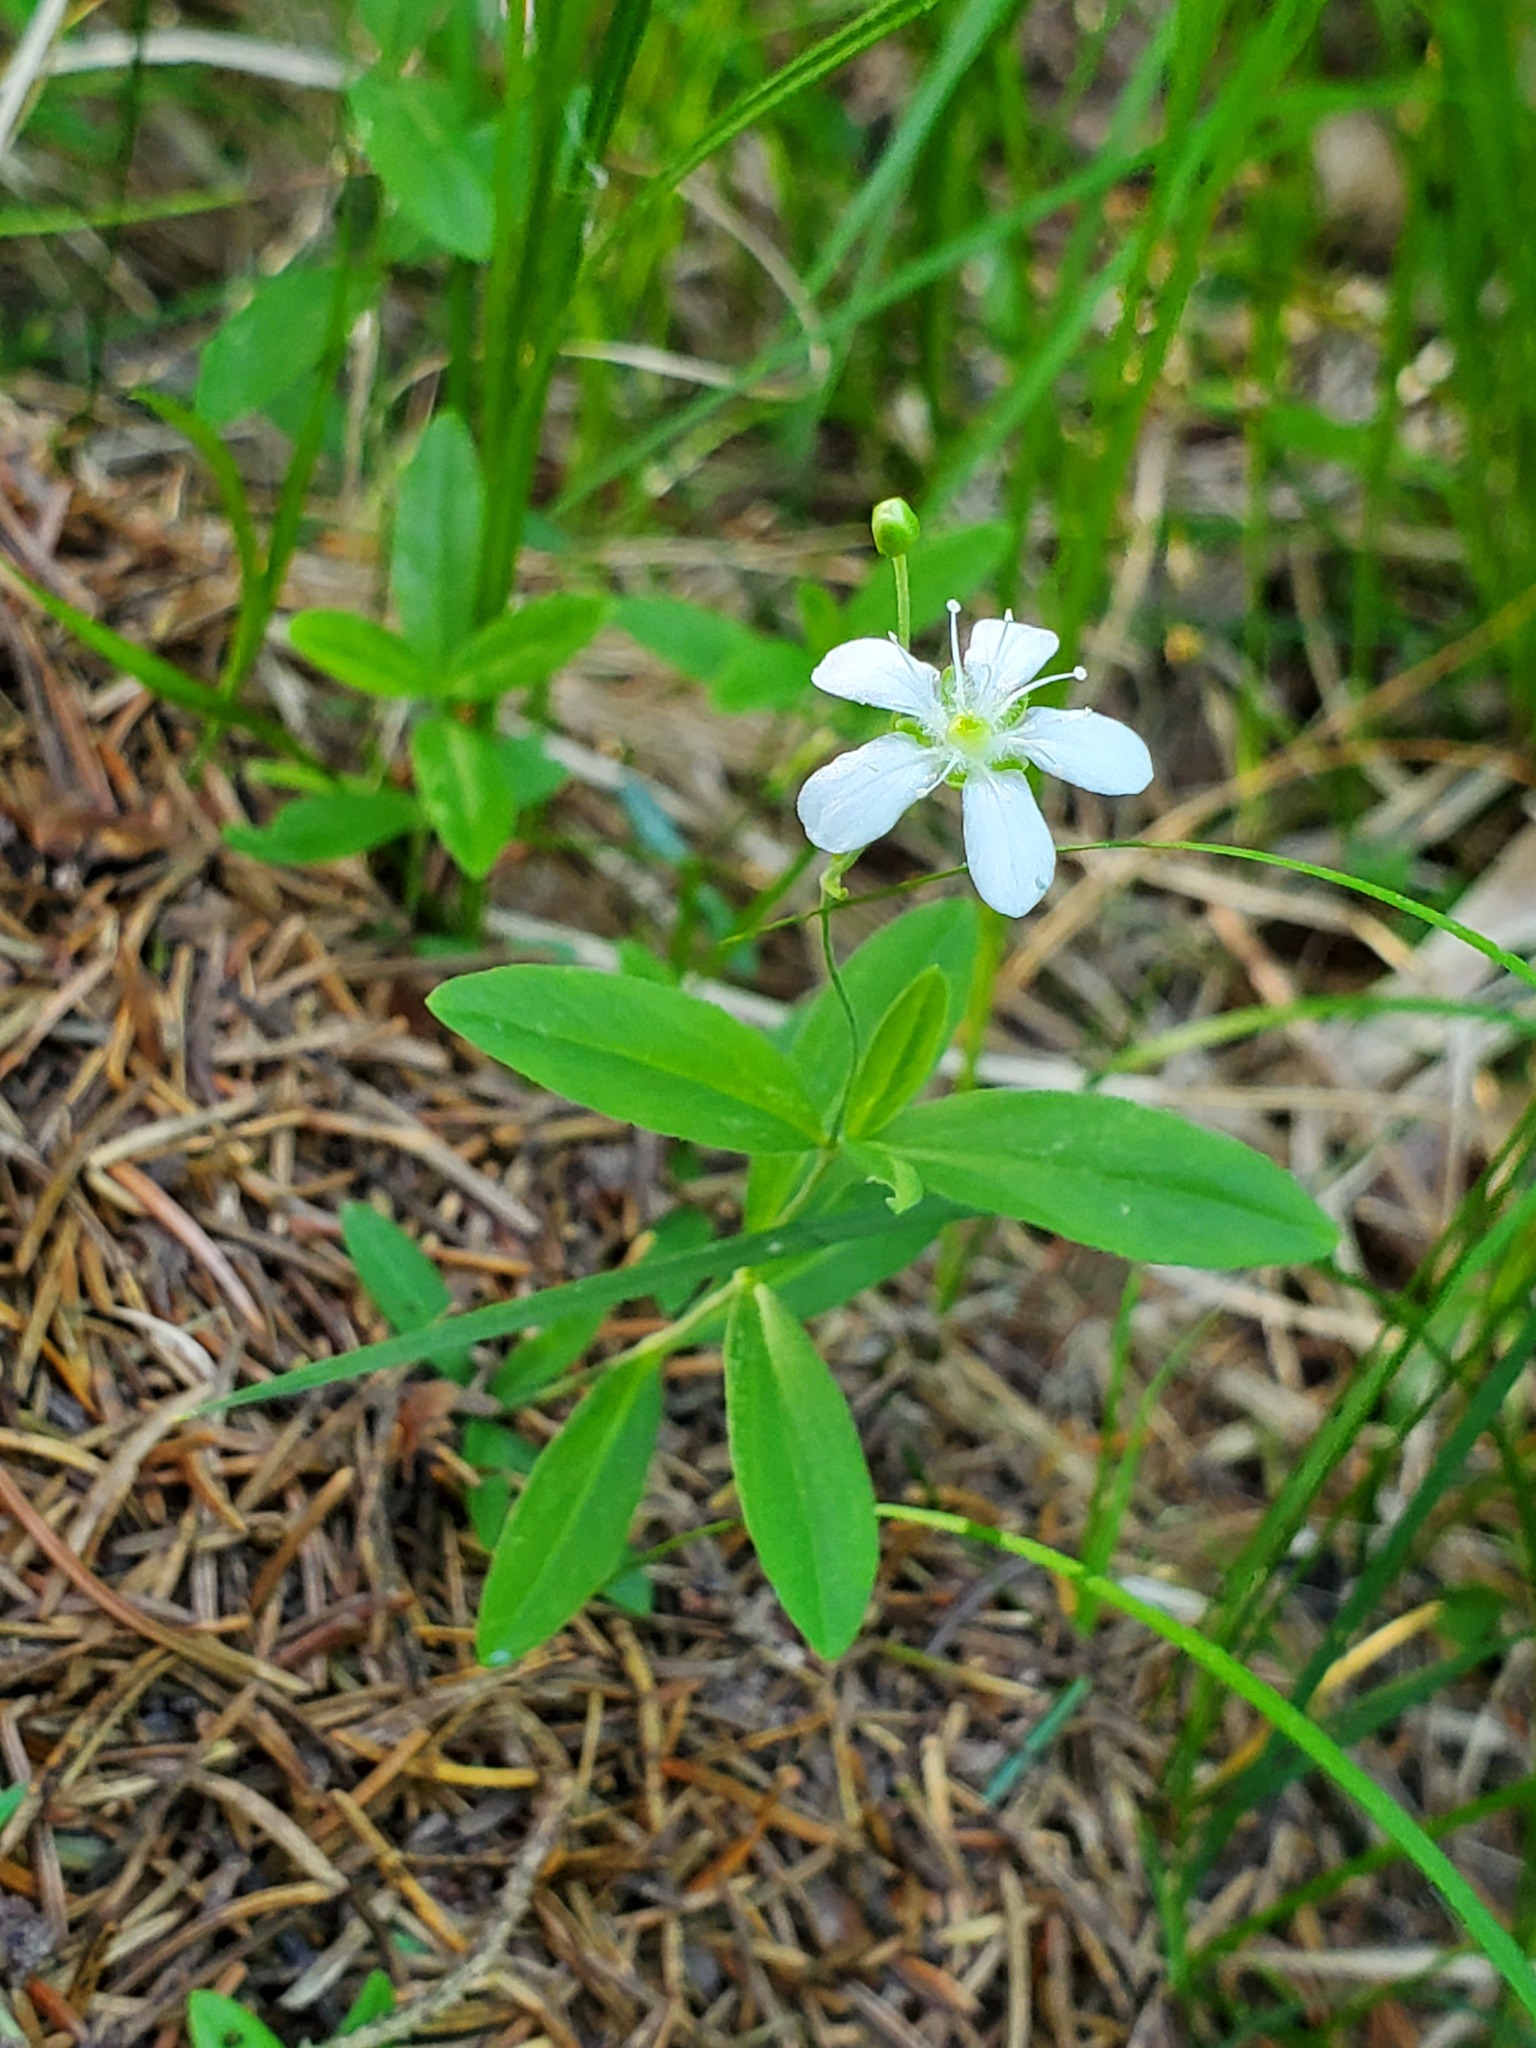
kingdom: Plantae
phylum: Tracheophyta
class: Magnoliopsida
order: Caryophyllales
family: Caryophyllaceae
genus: Moehringia
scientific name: Moehringia lateriflora
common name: Blunt-leaved sandwort
